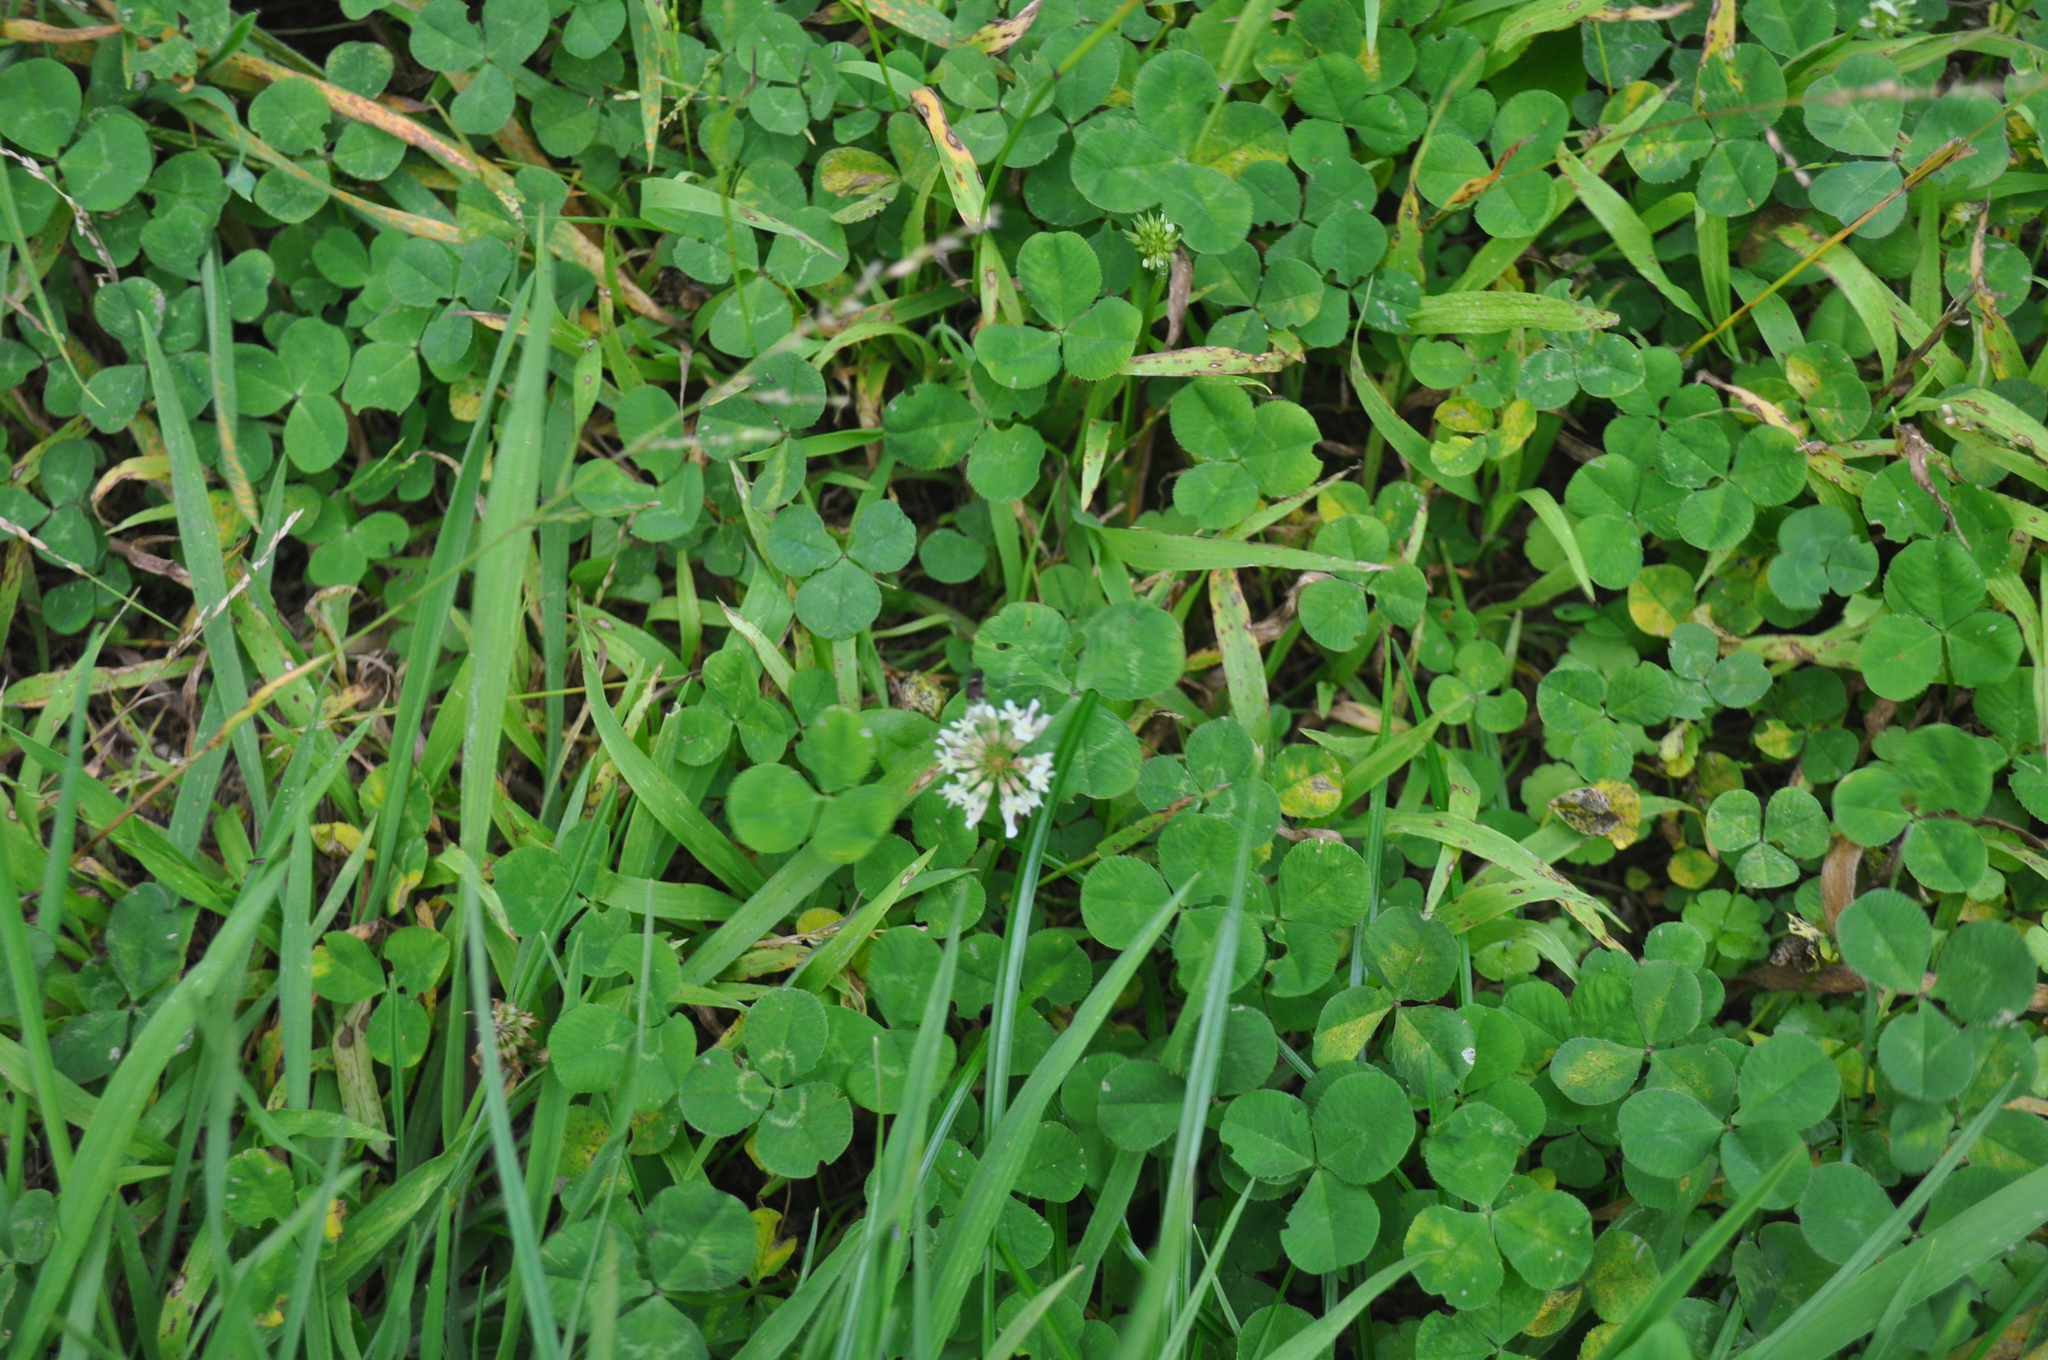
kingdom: Plantae
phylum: Tracheophyta
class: Magnoliopsida
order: Fabales
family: Fabaceae
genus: Trifolium
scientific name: Trifolium repens
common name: White clover
